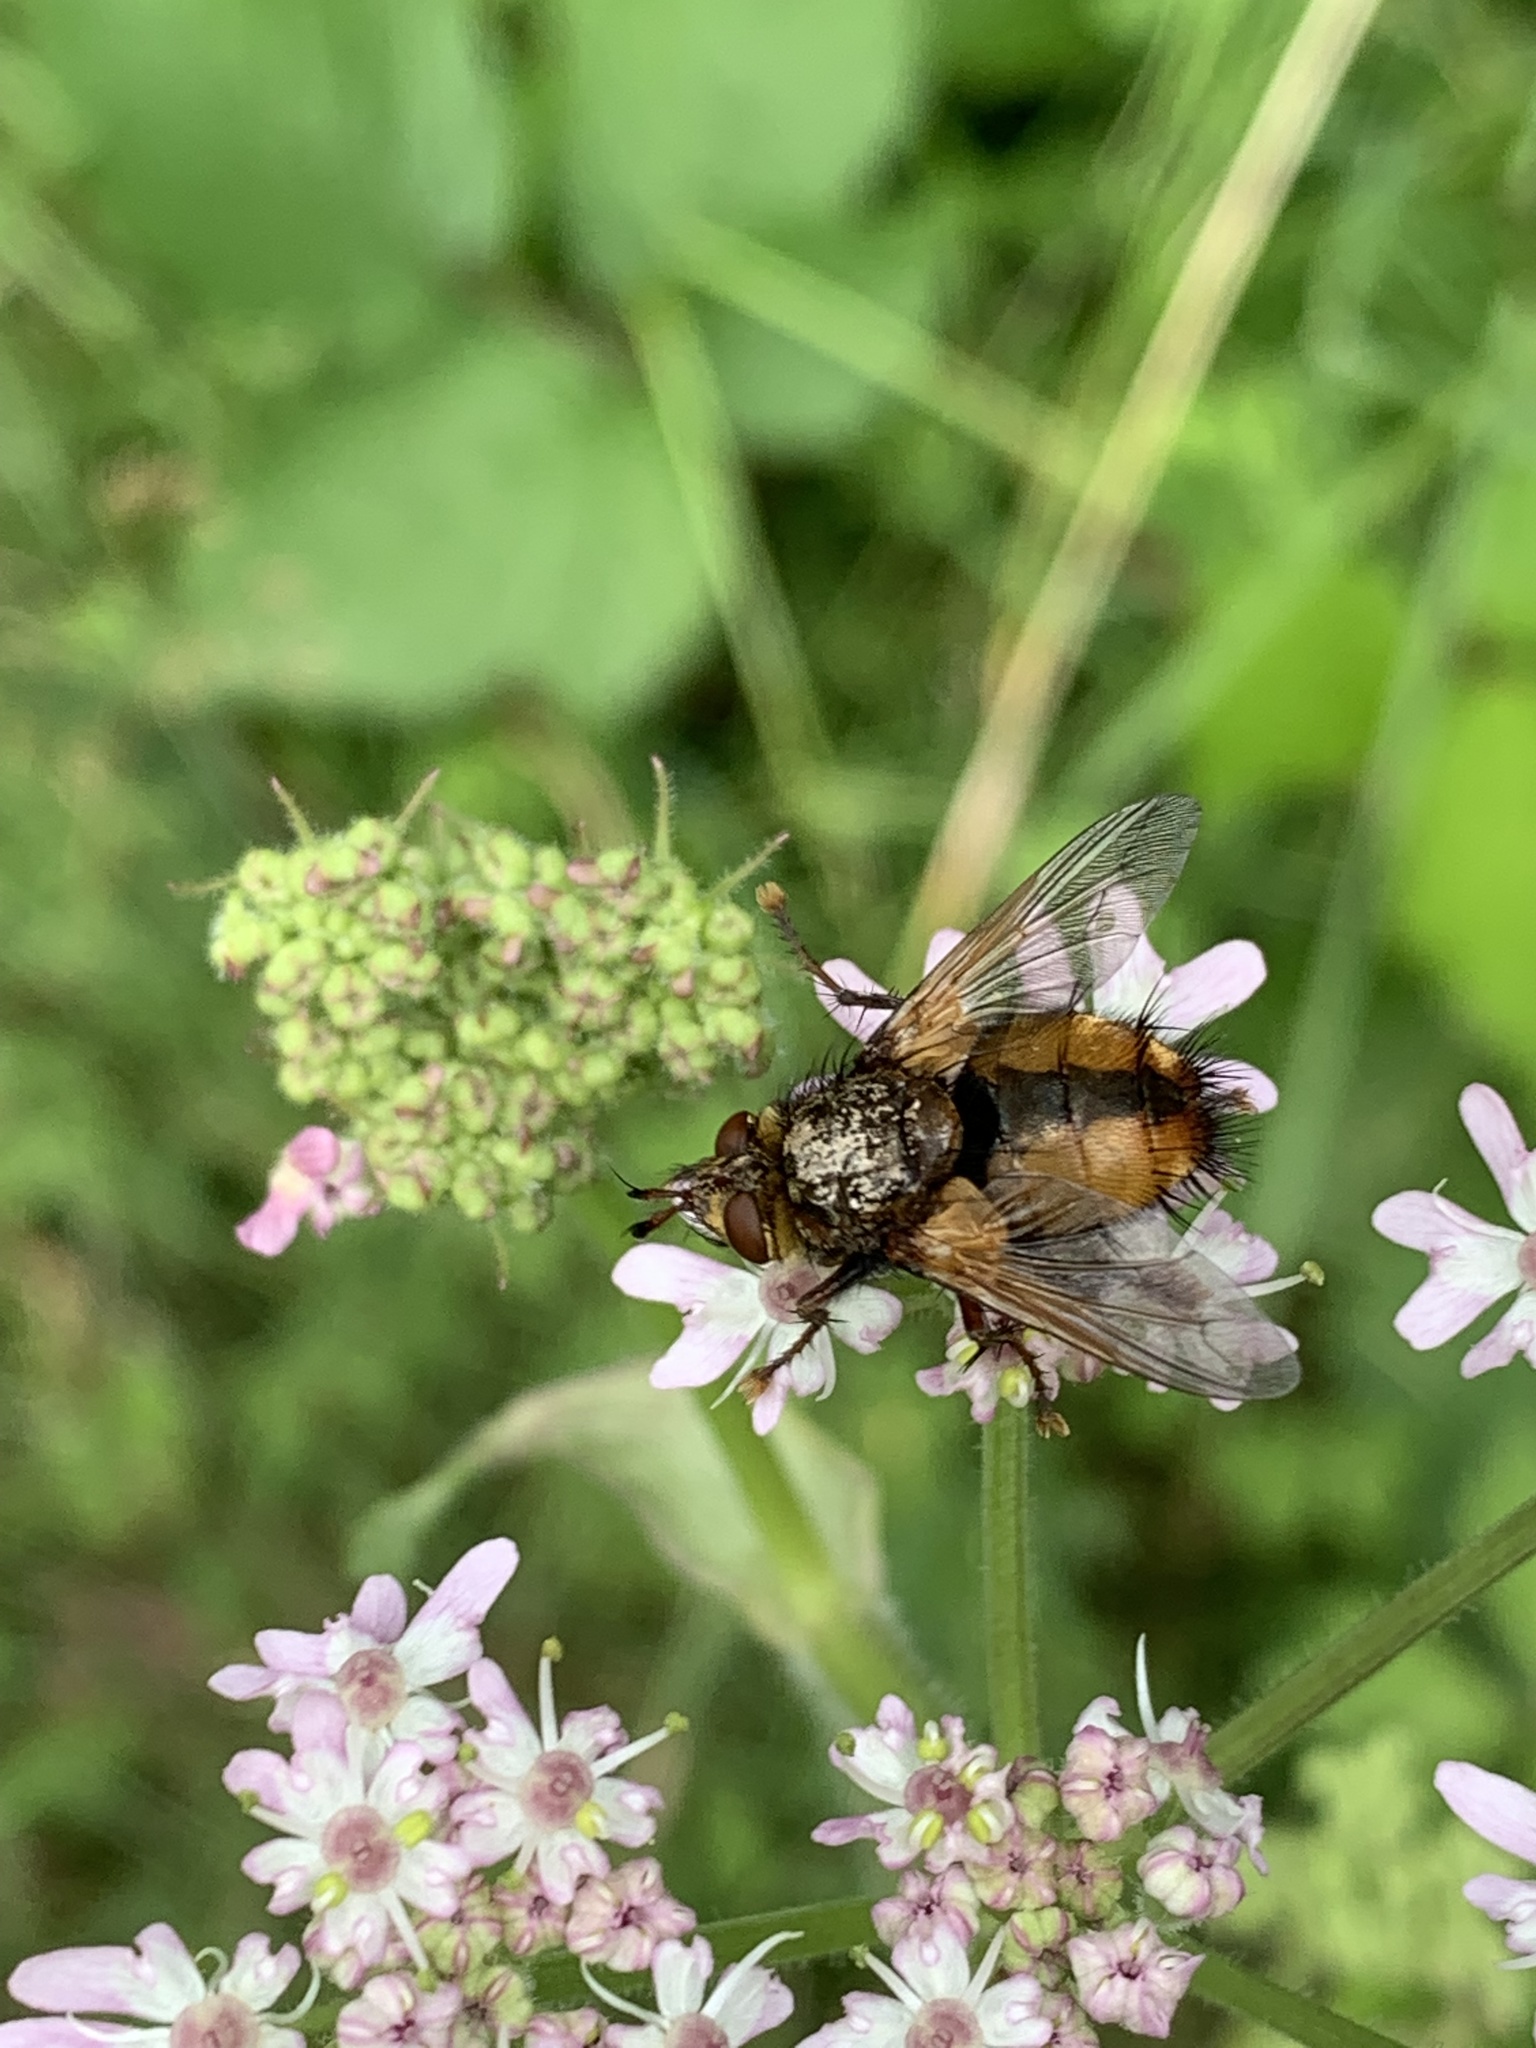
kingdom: Animalia
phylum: Arthropoda
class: Insecta
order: Diptera
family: Tachinidae
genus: Tachina
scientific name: Tachina fera
